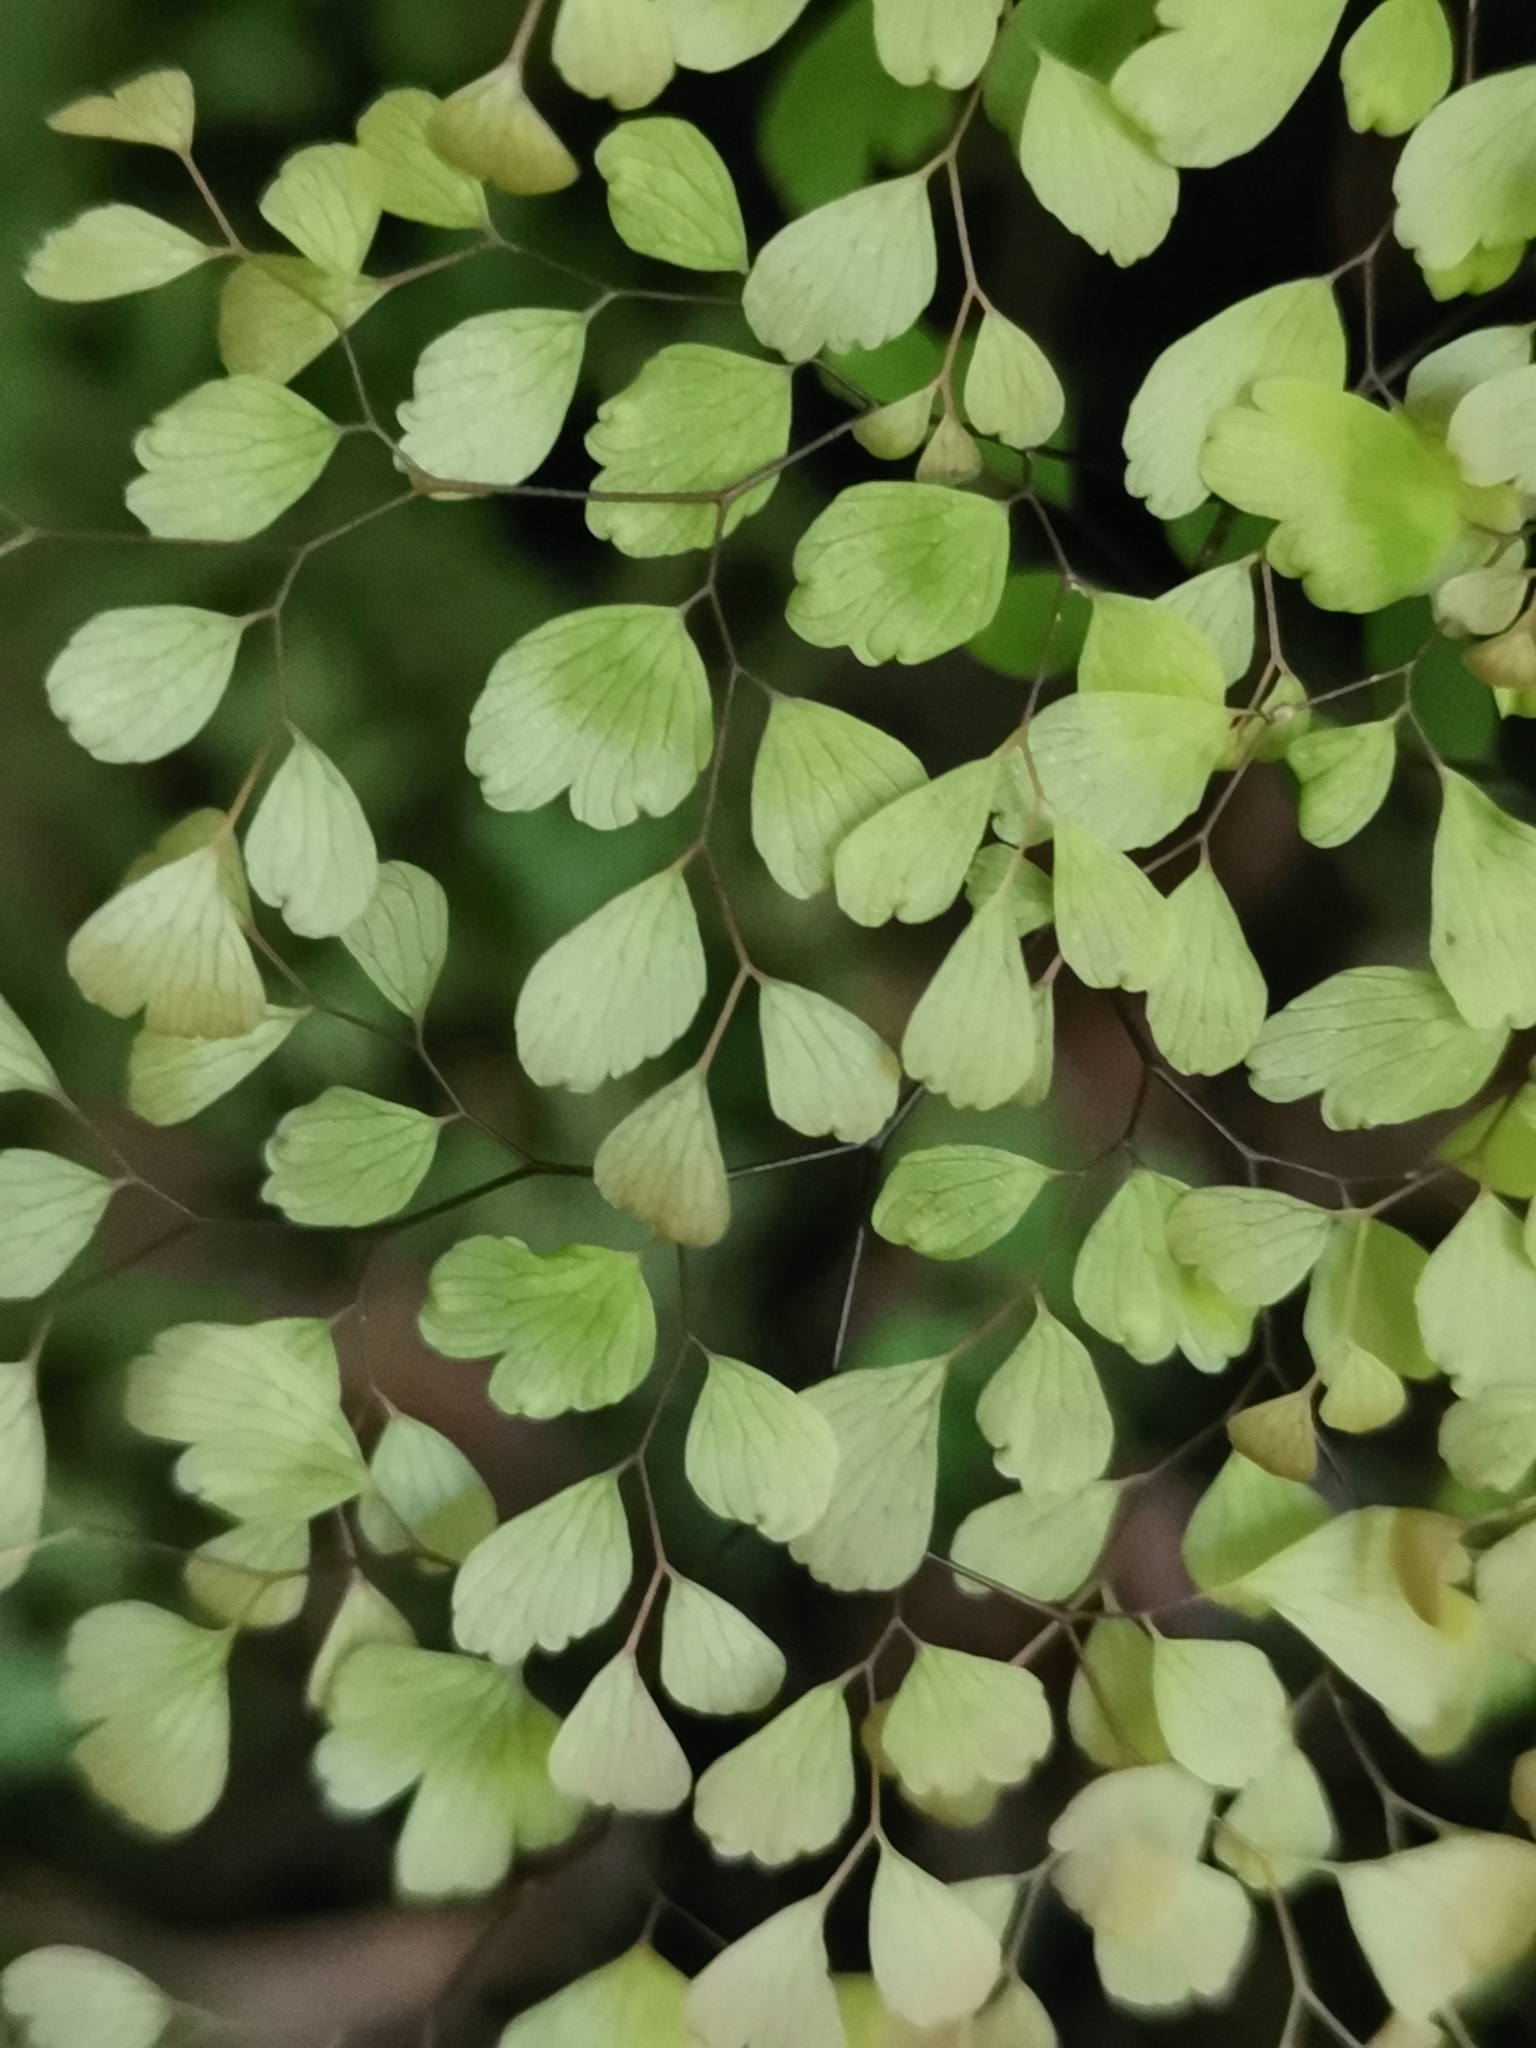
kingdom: Plantae
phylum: Tracheophyta
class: Polypodiopsida
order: Polypodiales
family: Pteridaceae
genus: Adiantum
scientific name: Adiantum raddianum
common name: Delta maidenhair fern
